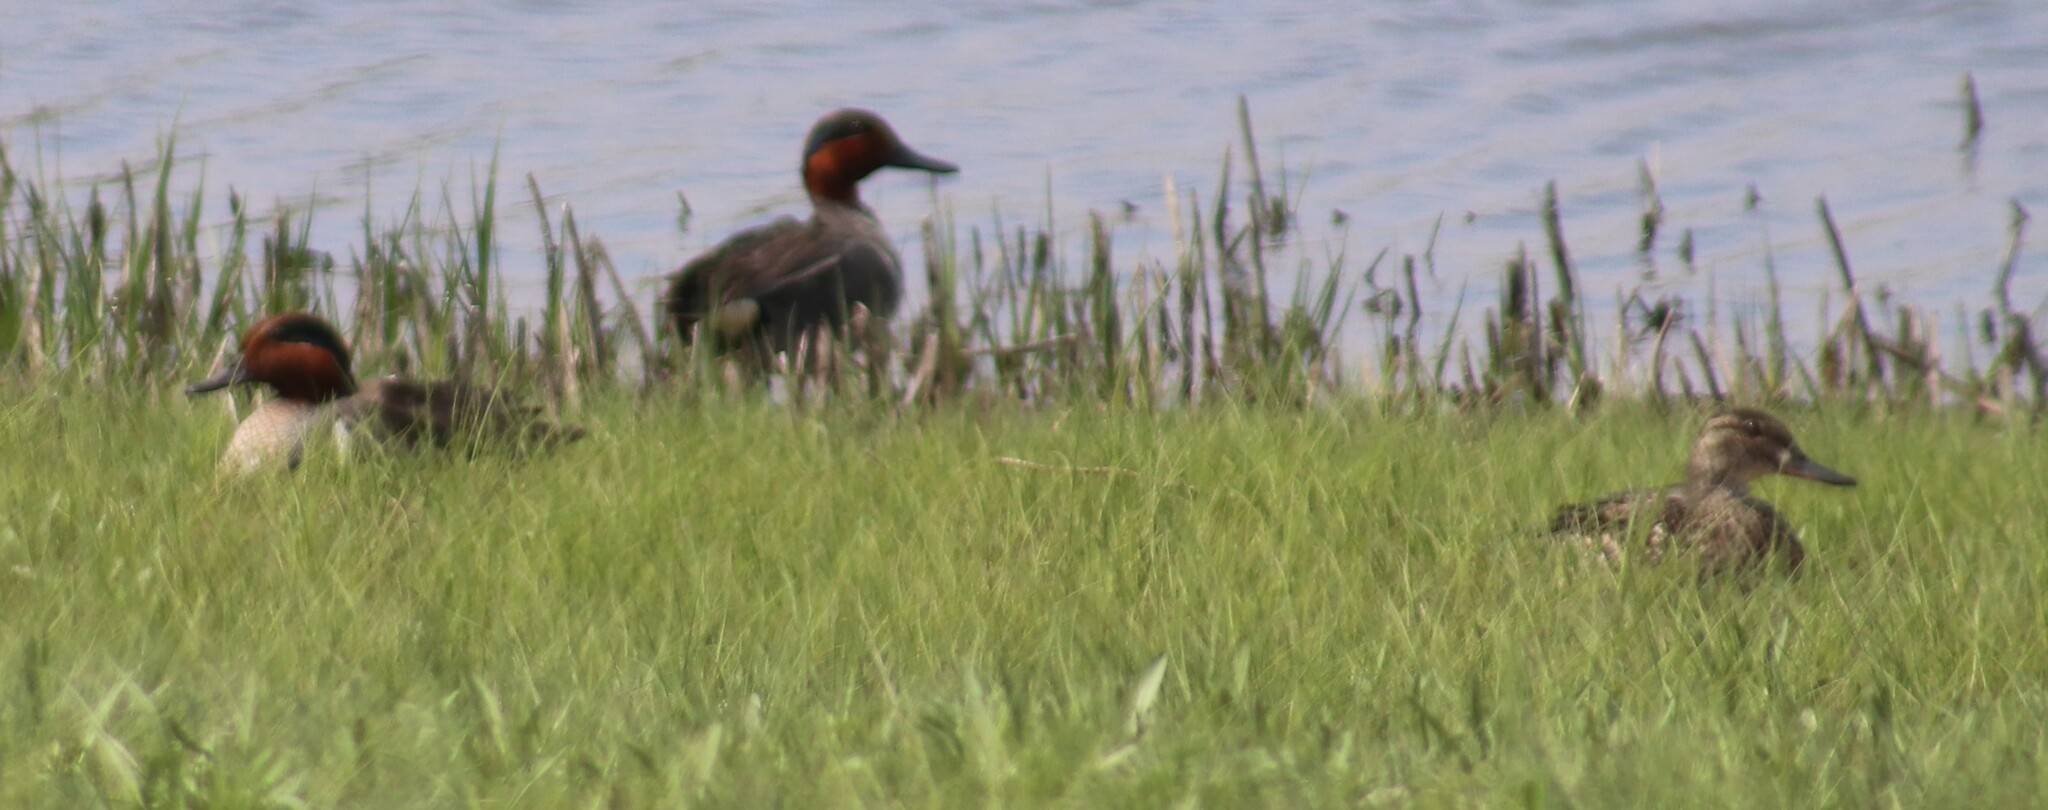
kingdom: Animalia
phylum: Chordata
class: Aves
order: Anseriformes
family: Anatidae
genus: Anas
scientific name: Anas crecca
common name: Eurasian teal
